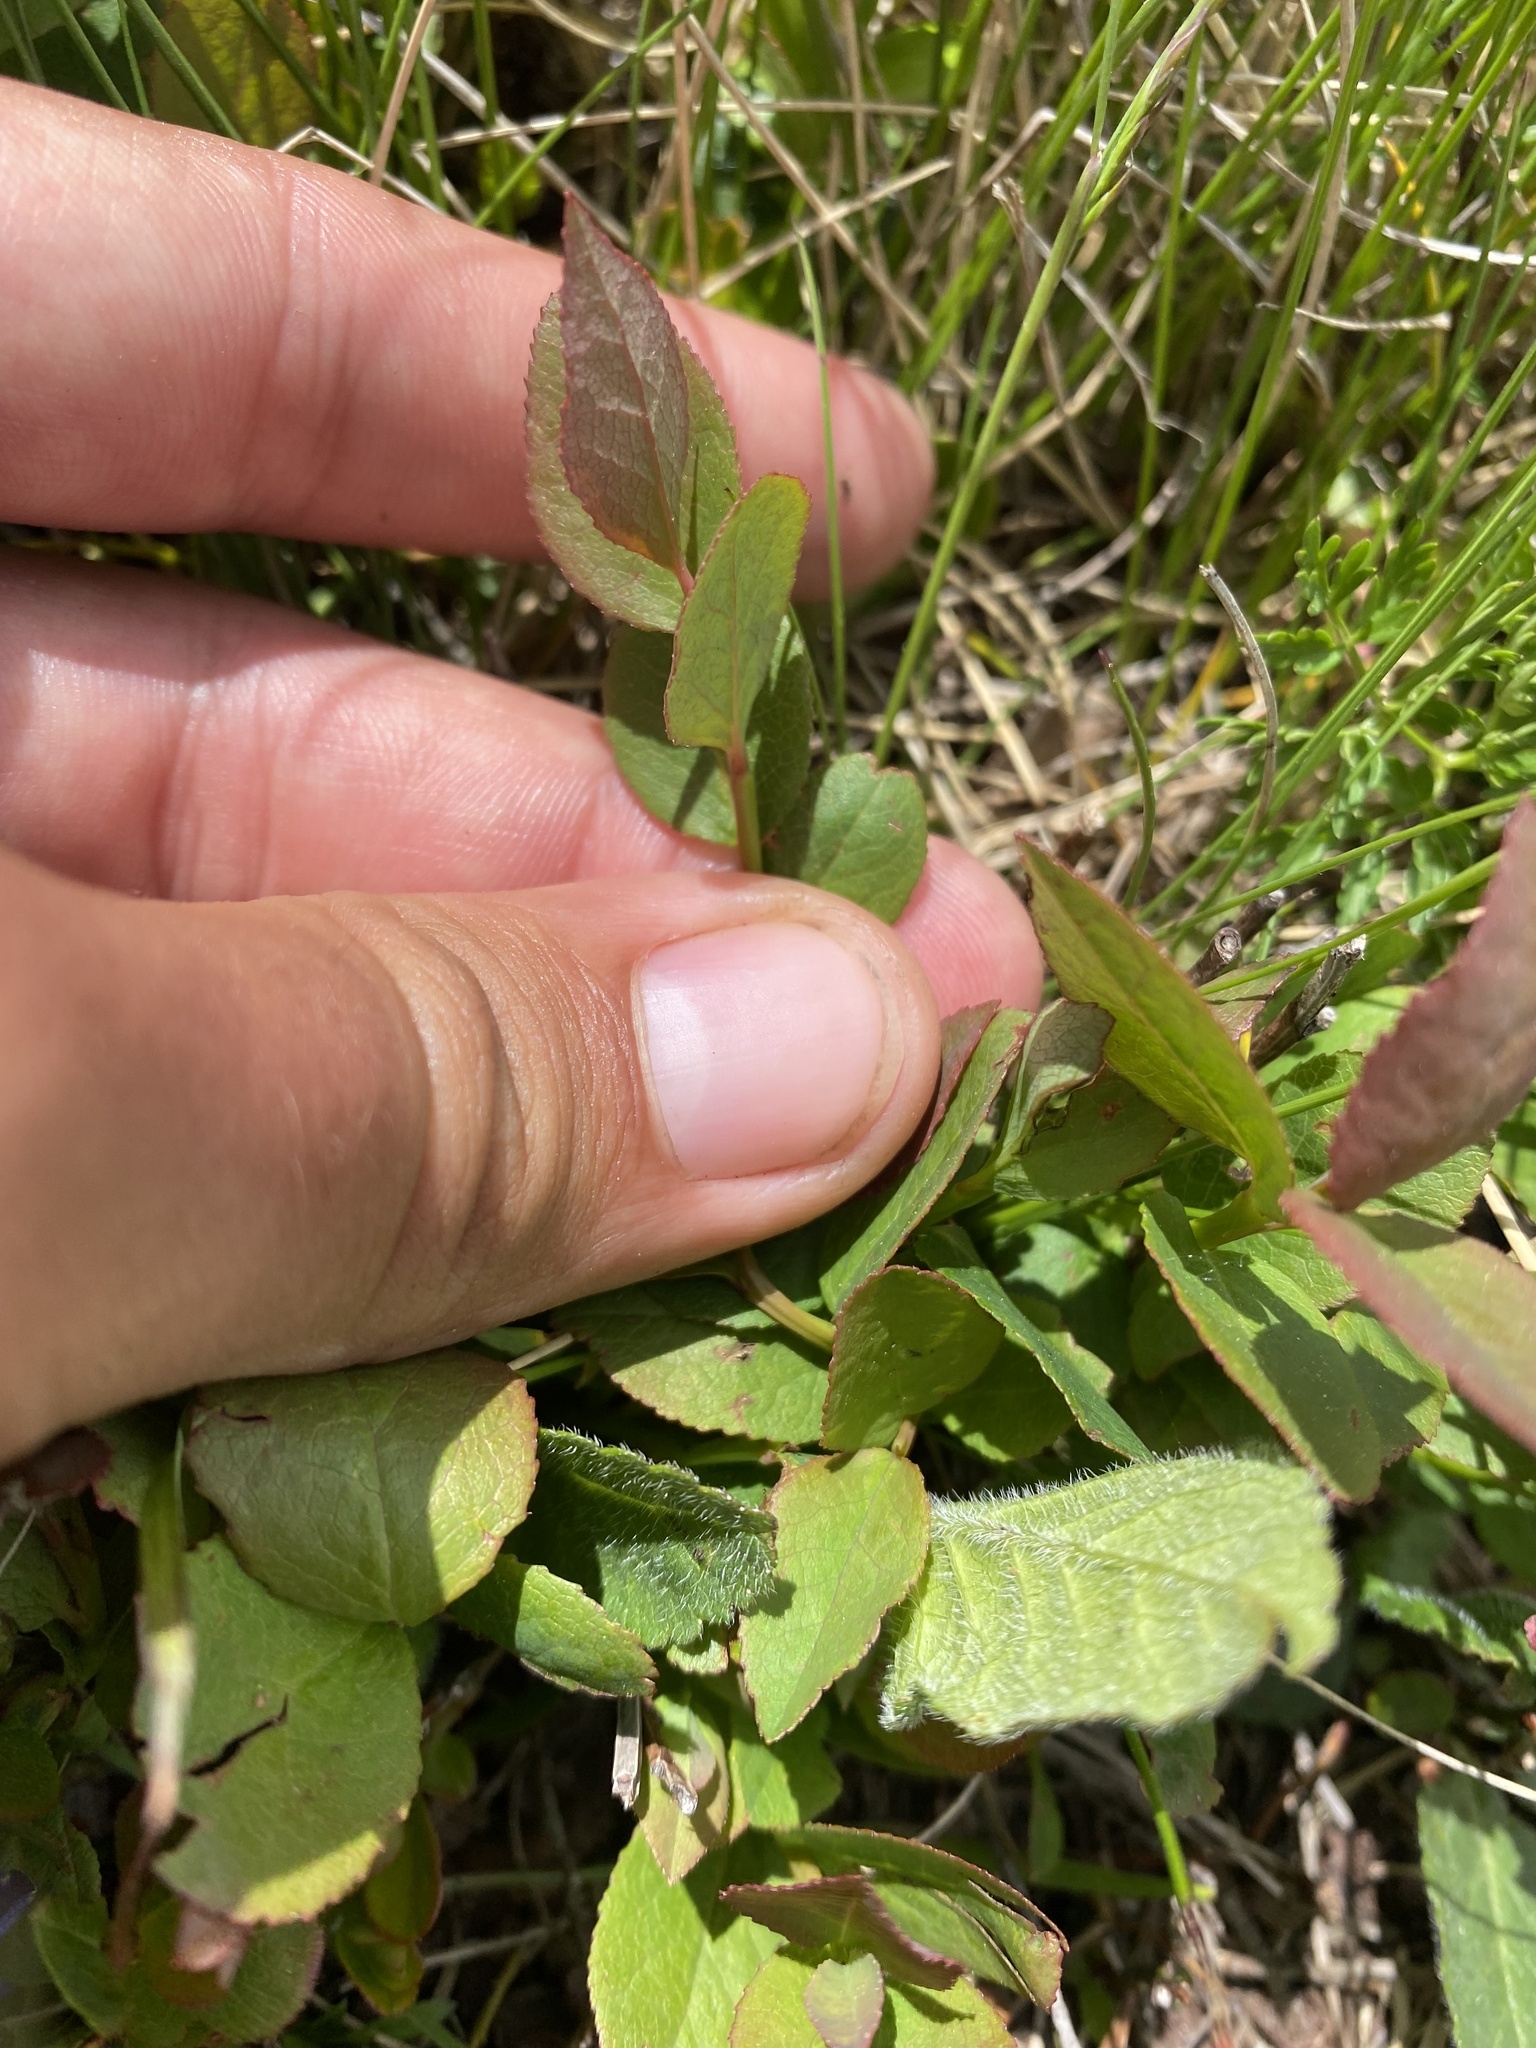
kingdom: Plantae
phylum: Tracheophyta
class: Magnoliopsida
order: Ericales
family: Ericaceae
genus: Vaccinium
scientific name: Vaccinium myrtillus
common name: Bilberry
